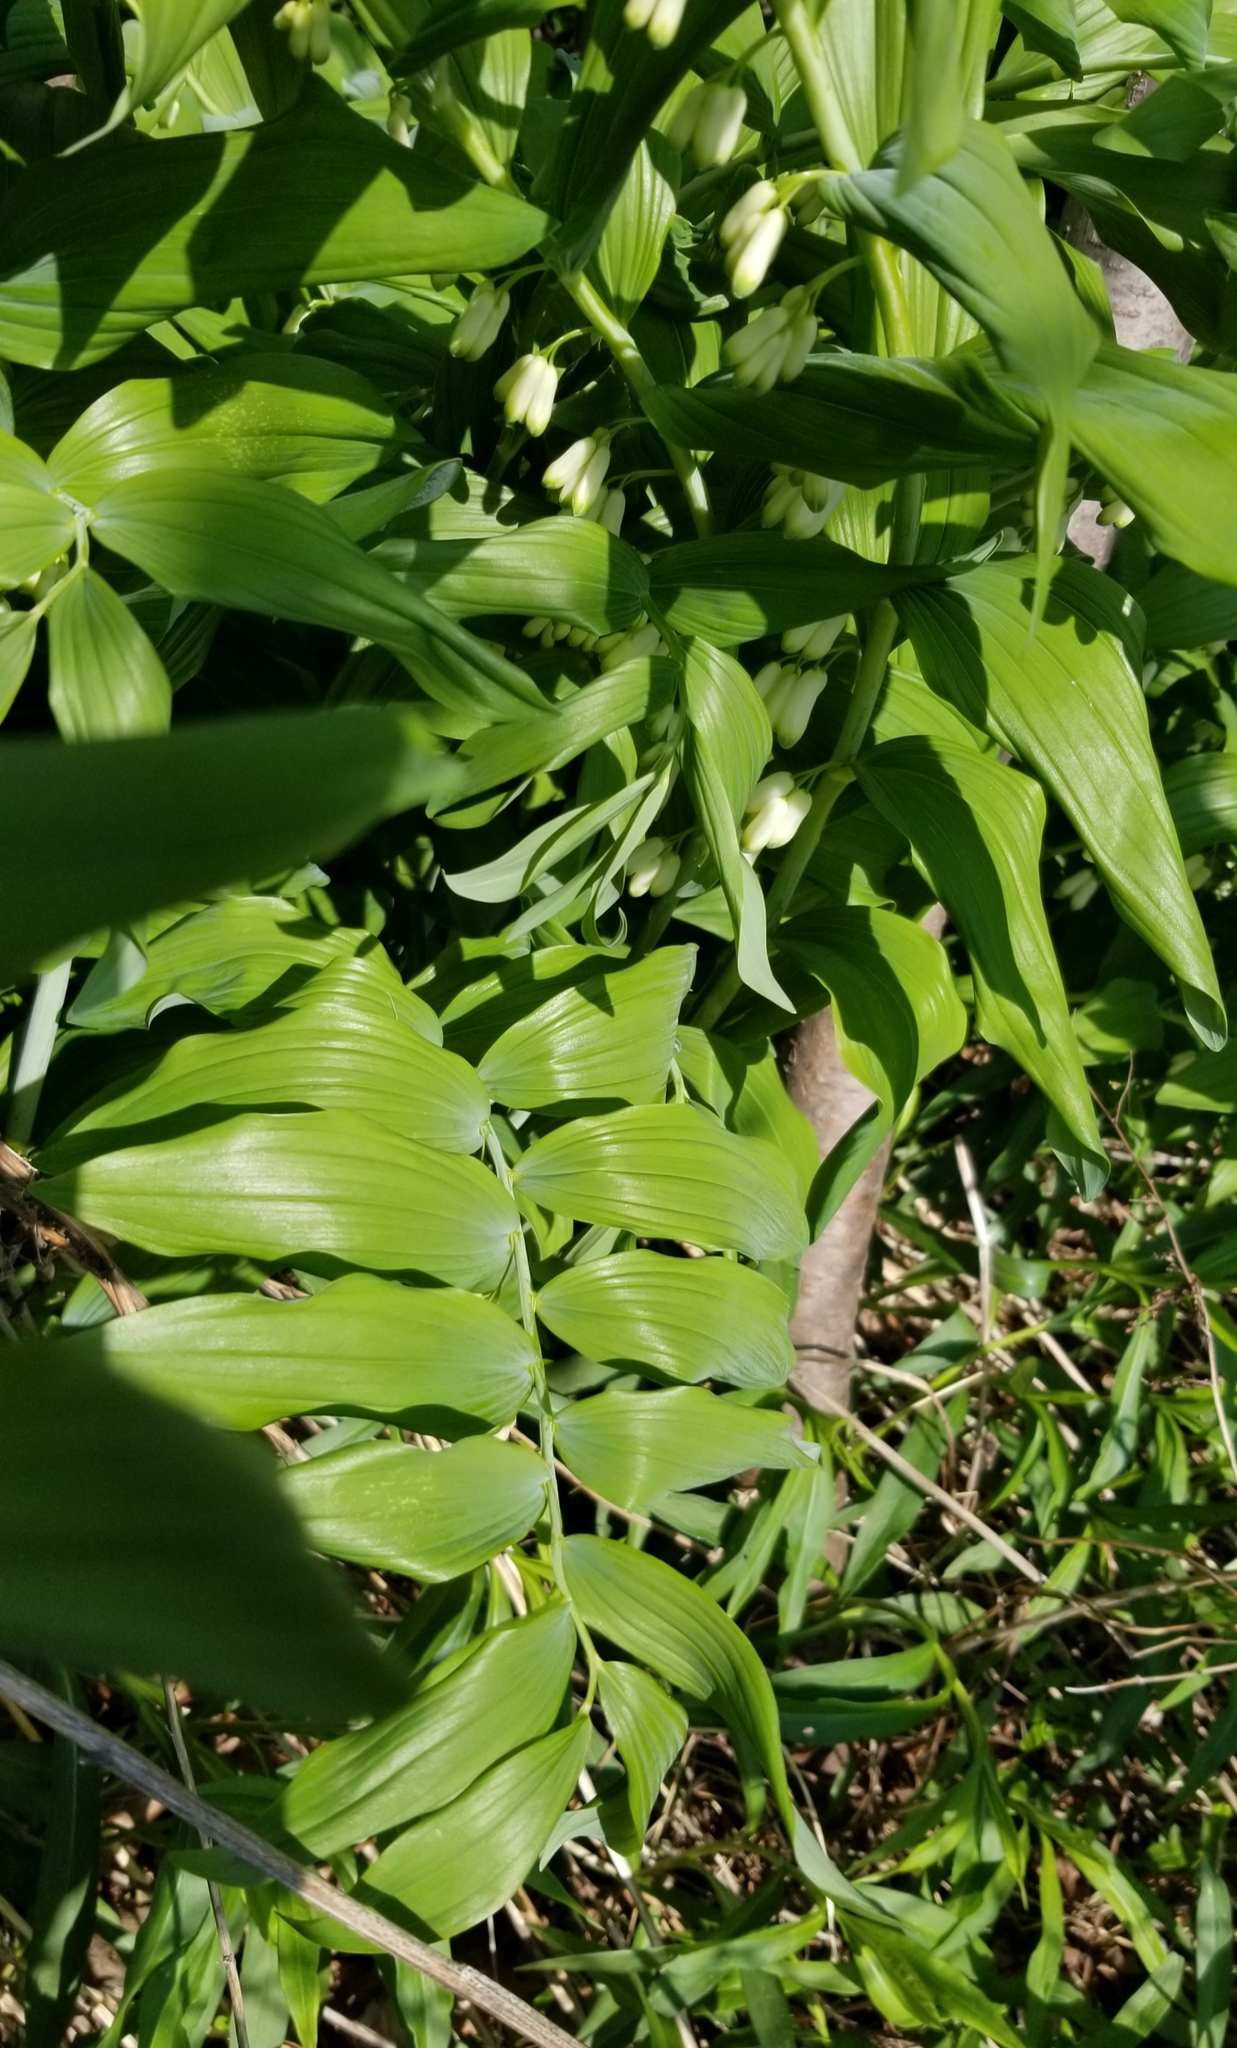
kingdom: Plantae
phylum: Tracheophyta
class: Liliopsida
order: Asparagales
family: Asparagaceae
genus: Polygonatum
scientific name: Polygonatum multiflorum
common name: Solomon's-seal
